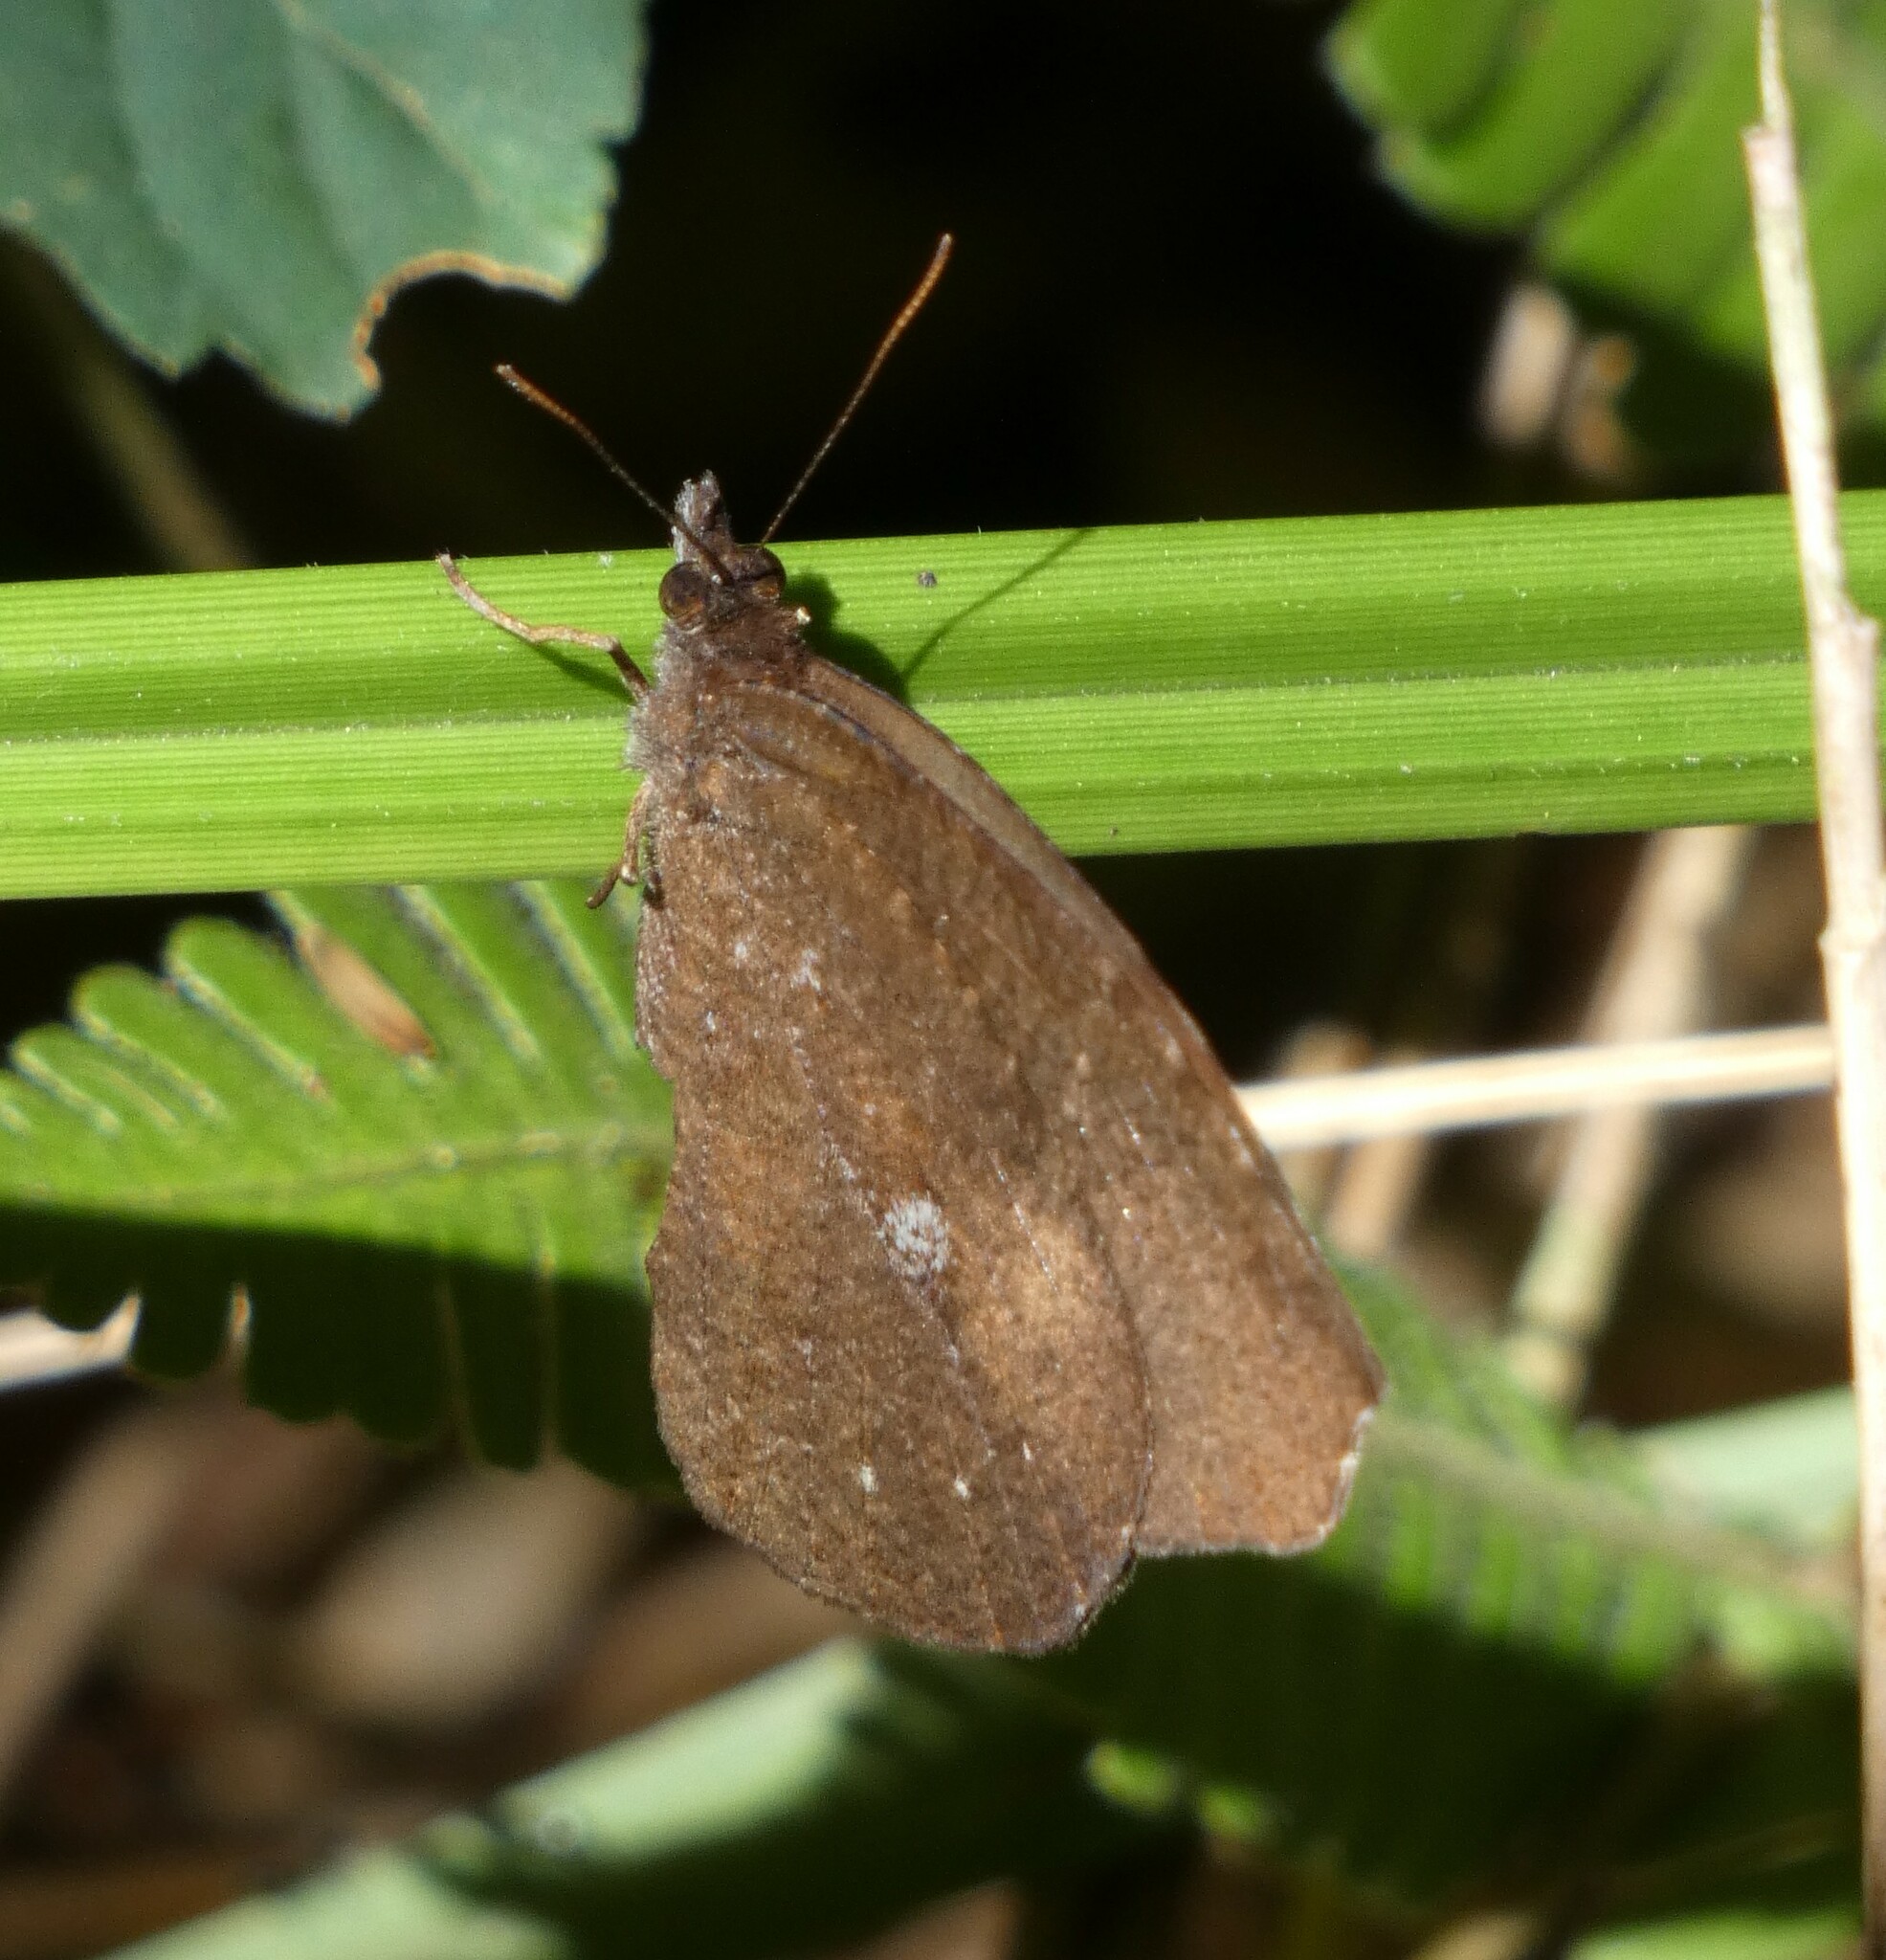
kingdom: Animalia
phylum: Arthropoda
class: Insecta
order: Lepidoptera
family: Nymphalidae
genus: Godartiana
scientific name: Godartiana muscosa
